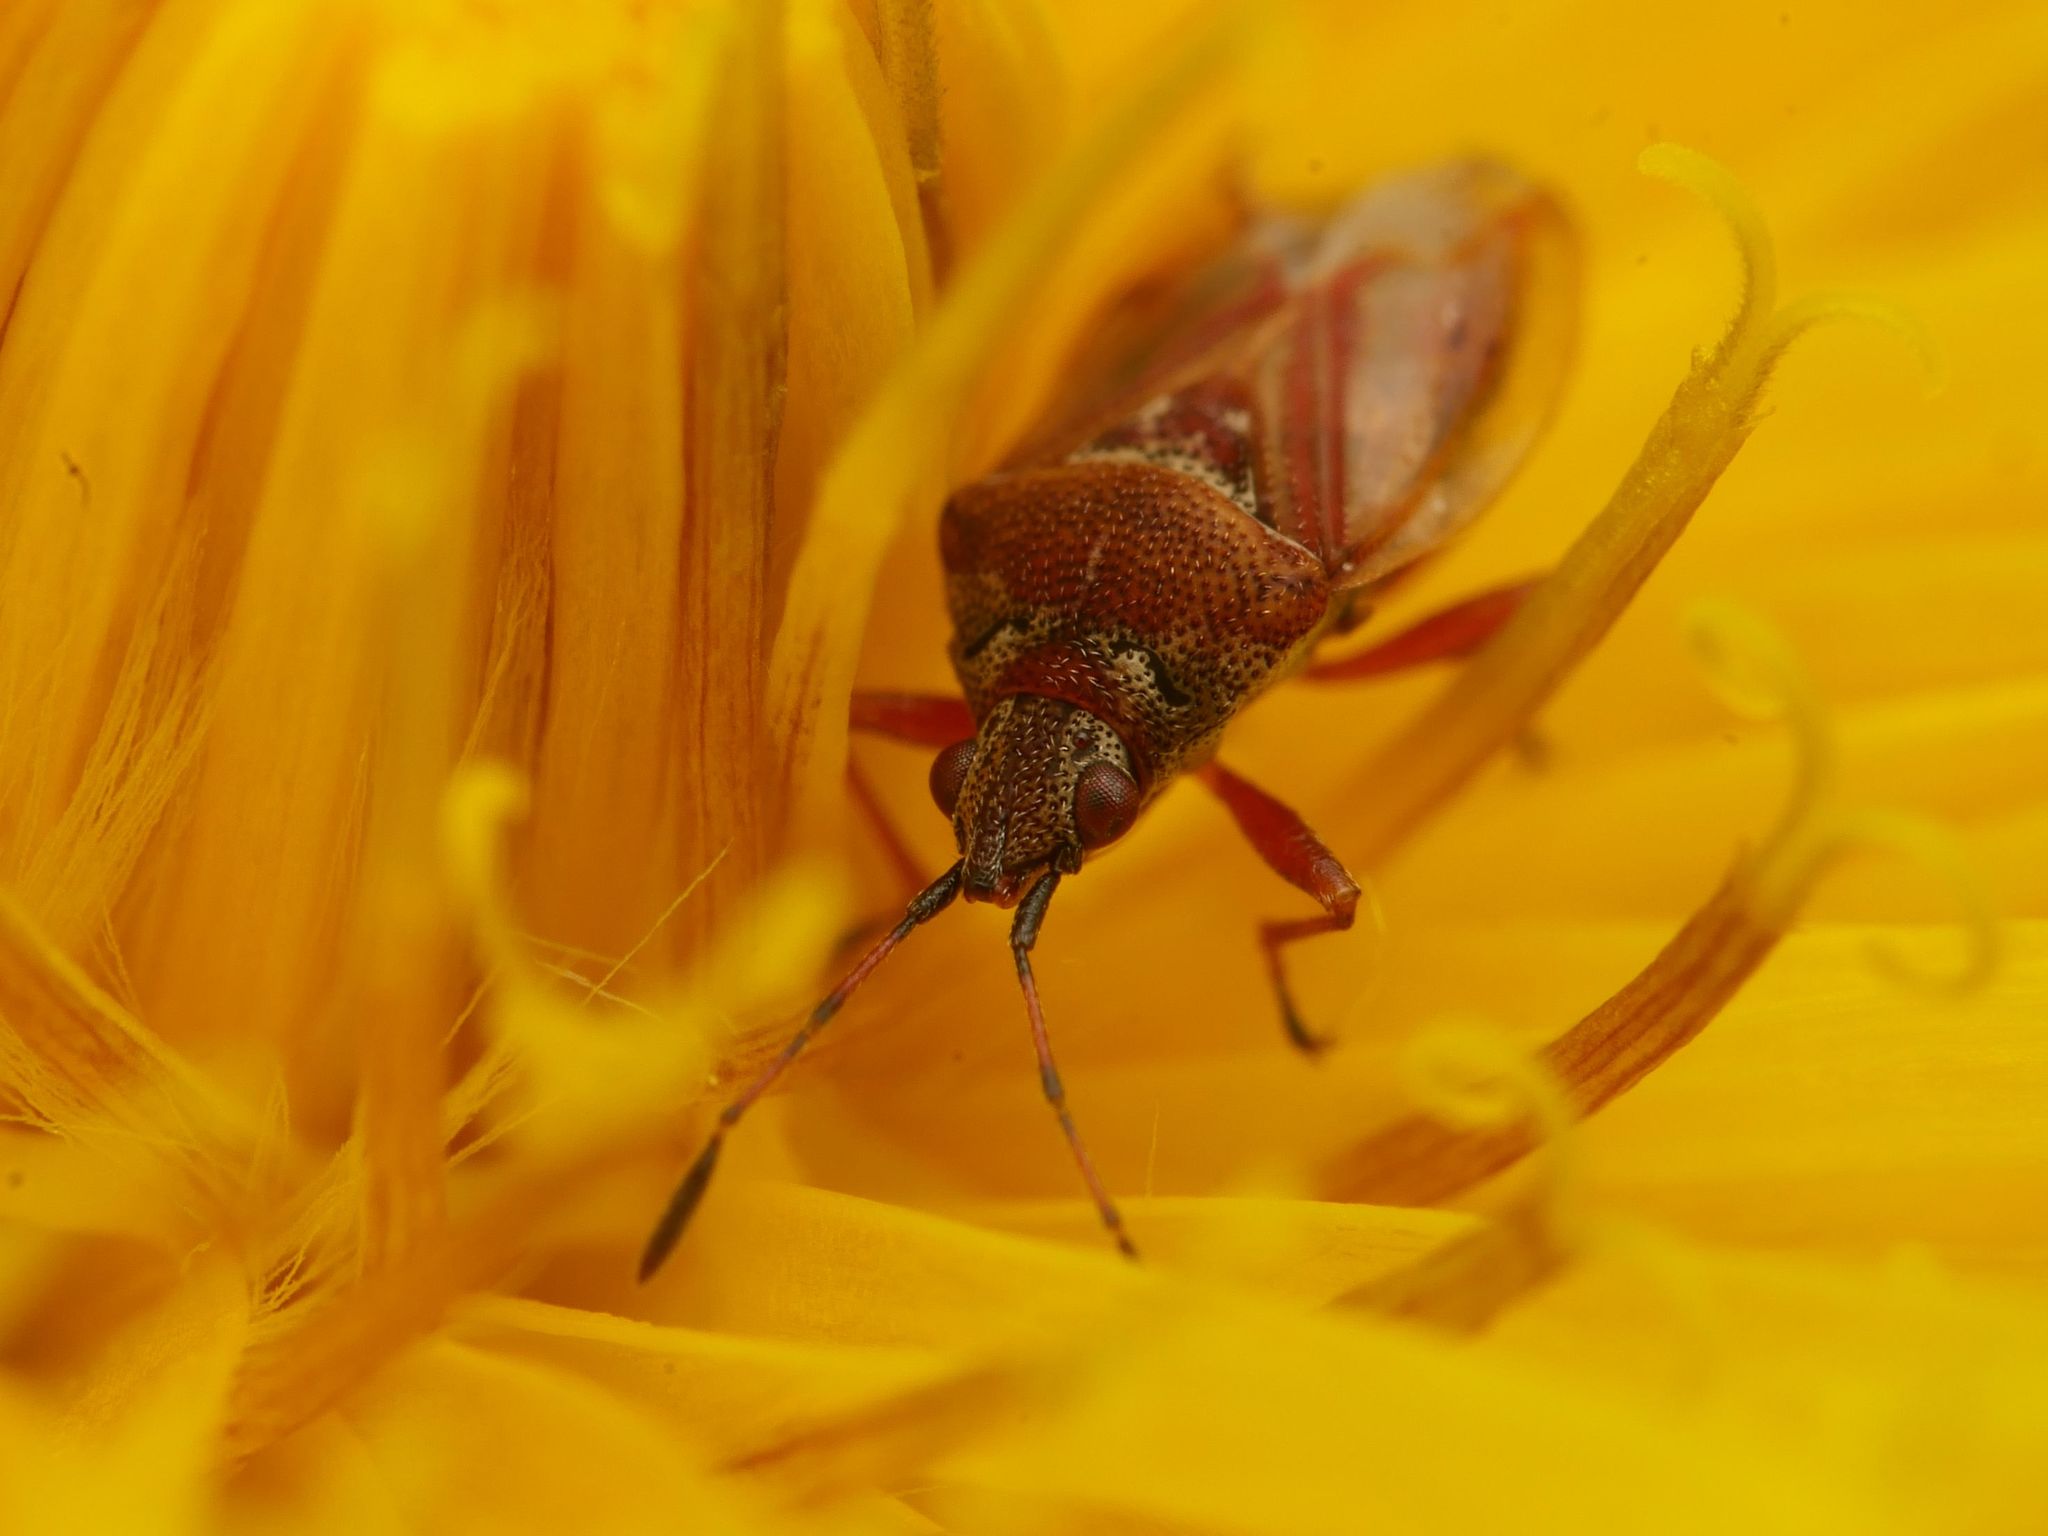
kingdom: Animalia
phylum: Arthropoda
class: Insecta
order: Hemiptera
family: Lygaeidae
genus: Kleidocerys
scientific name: Kleidocerys resedae
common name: Birch catkin bug
